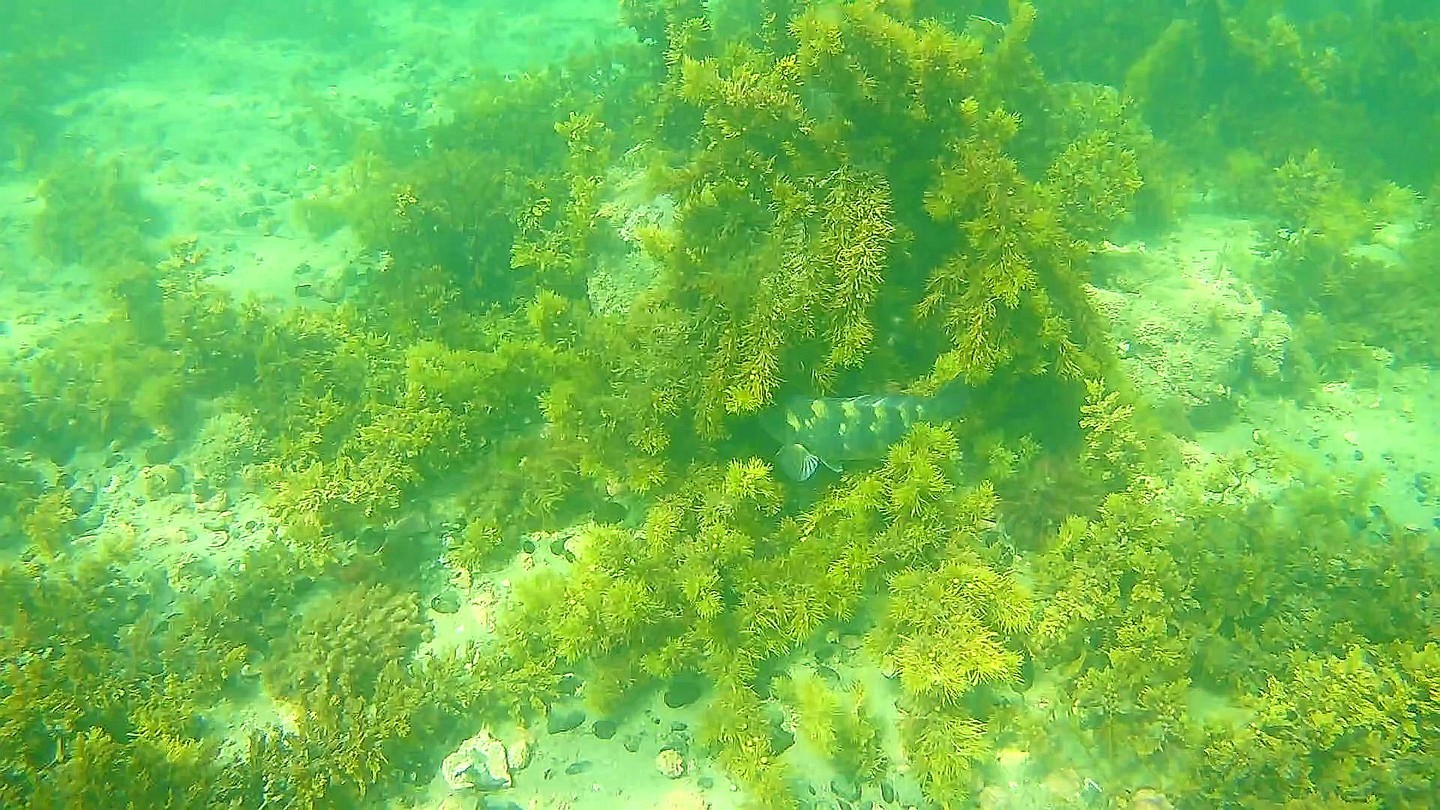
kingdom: Animalia
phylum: Chordata
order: Perciformes
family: Labridae
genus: Notolabrus
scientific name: Notolabrus fucicola
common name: Banded parrotfish
